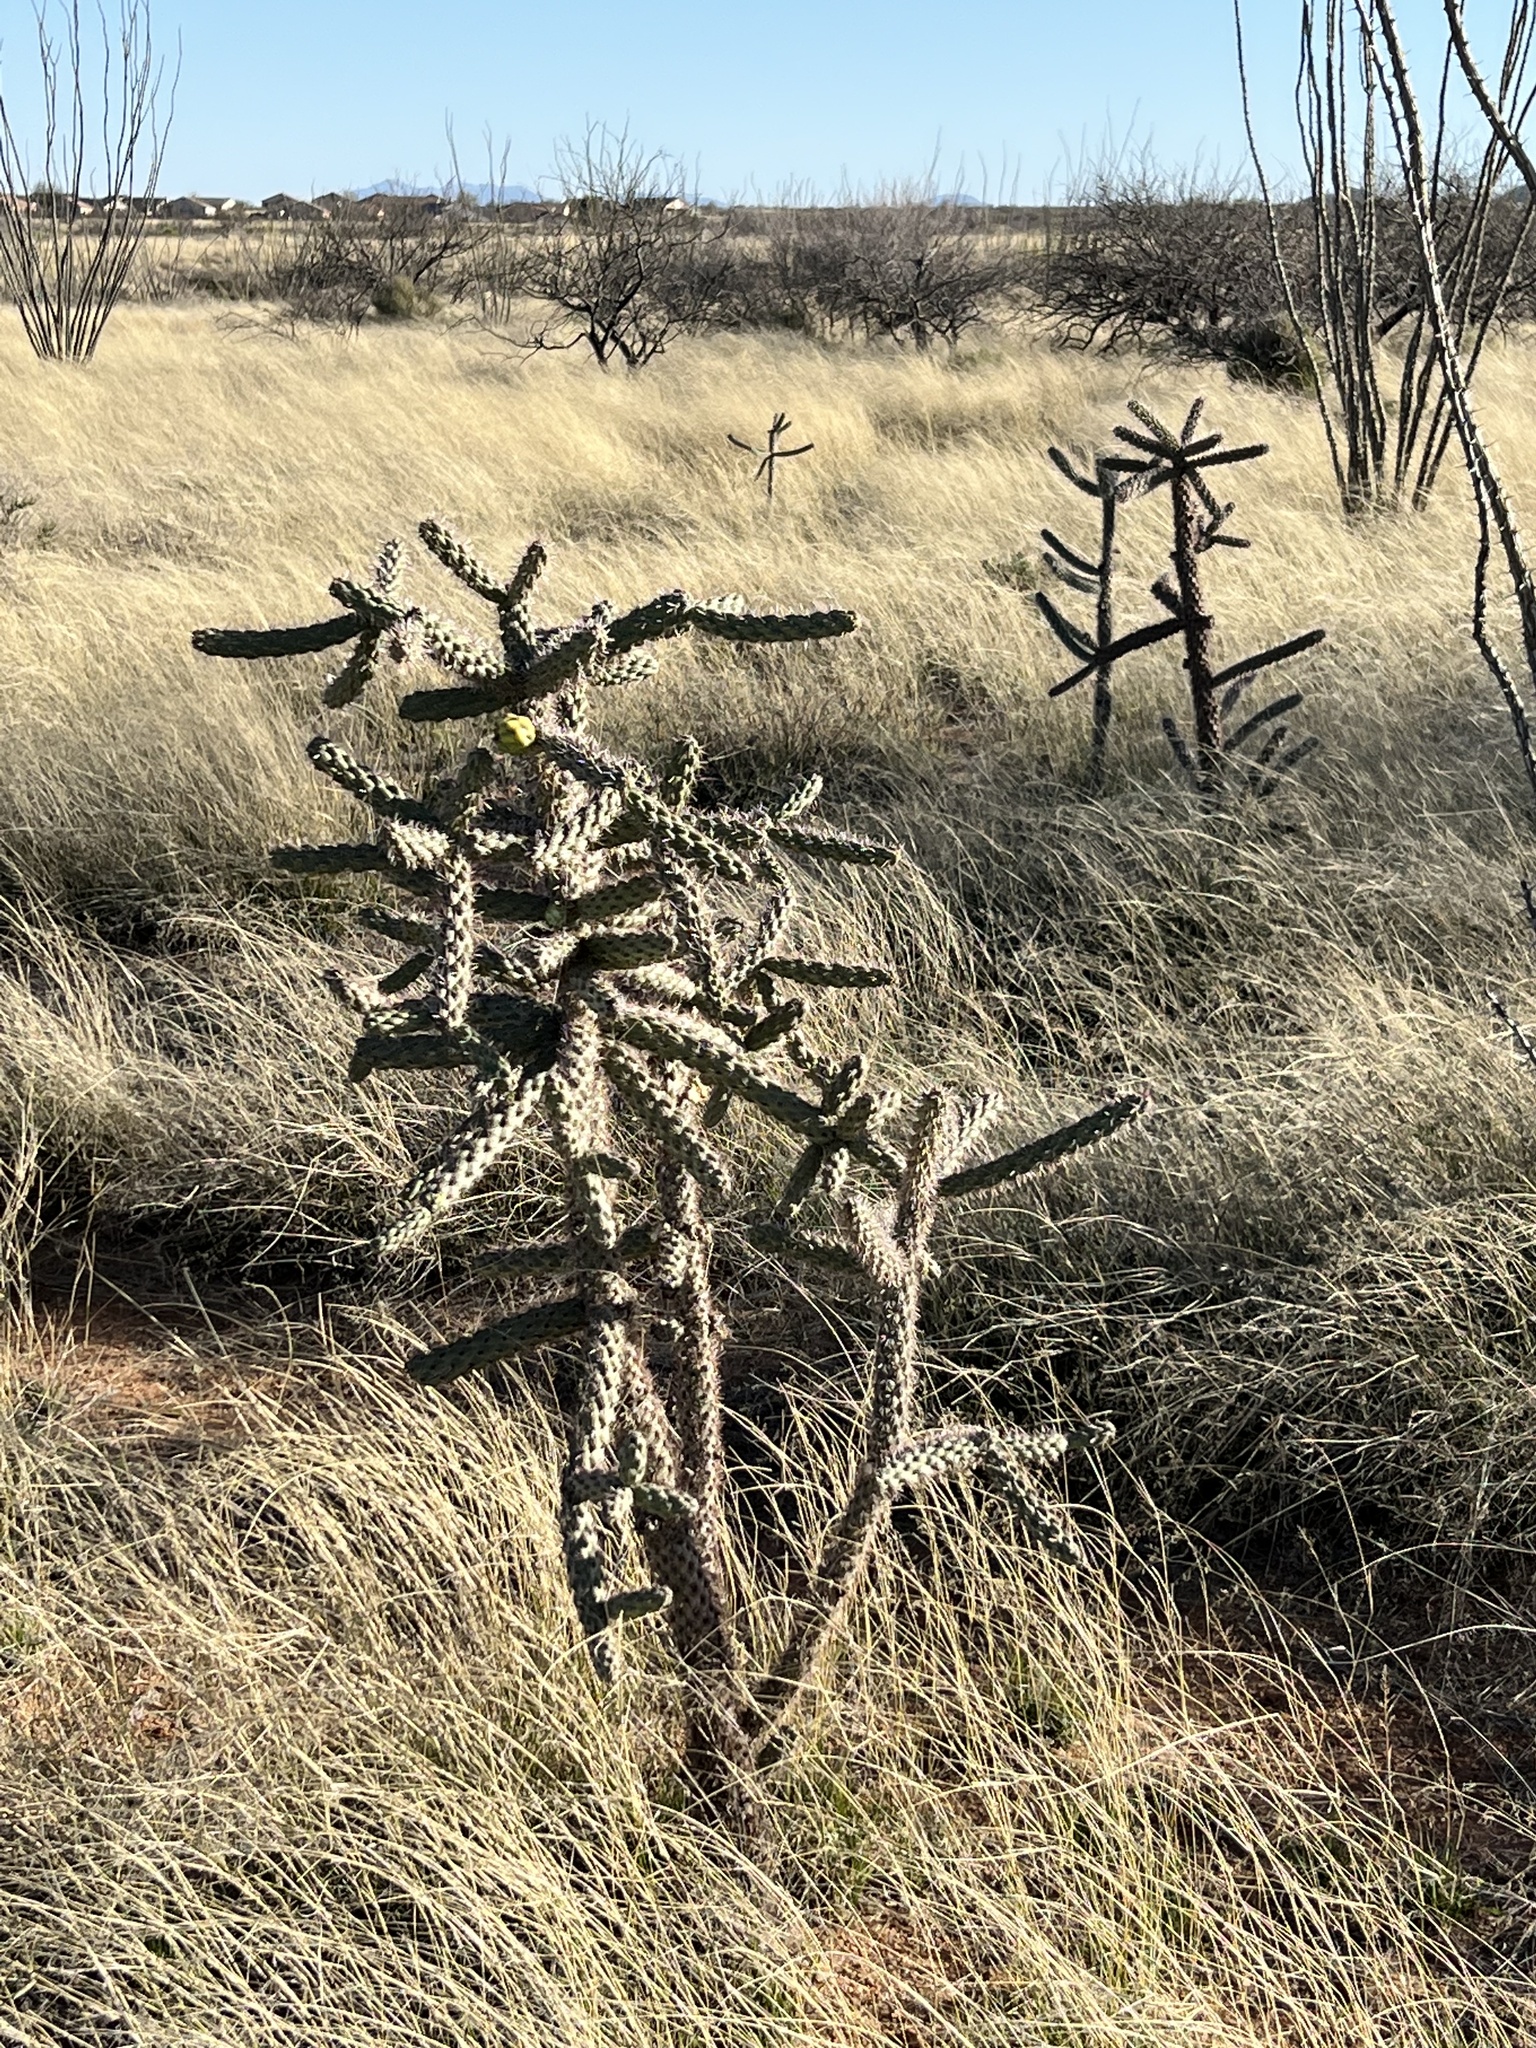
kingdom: Plantae
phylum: Tracheophyta
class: Magnoliopsida
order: Caryophyllales
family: Cactaceae
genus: Cylindropuntia
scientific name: Cylindropuntia imbricata
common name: Candelabrum cactus
